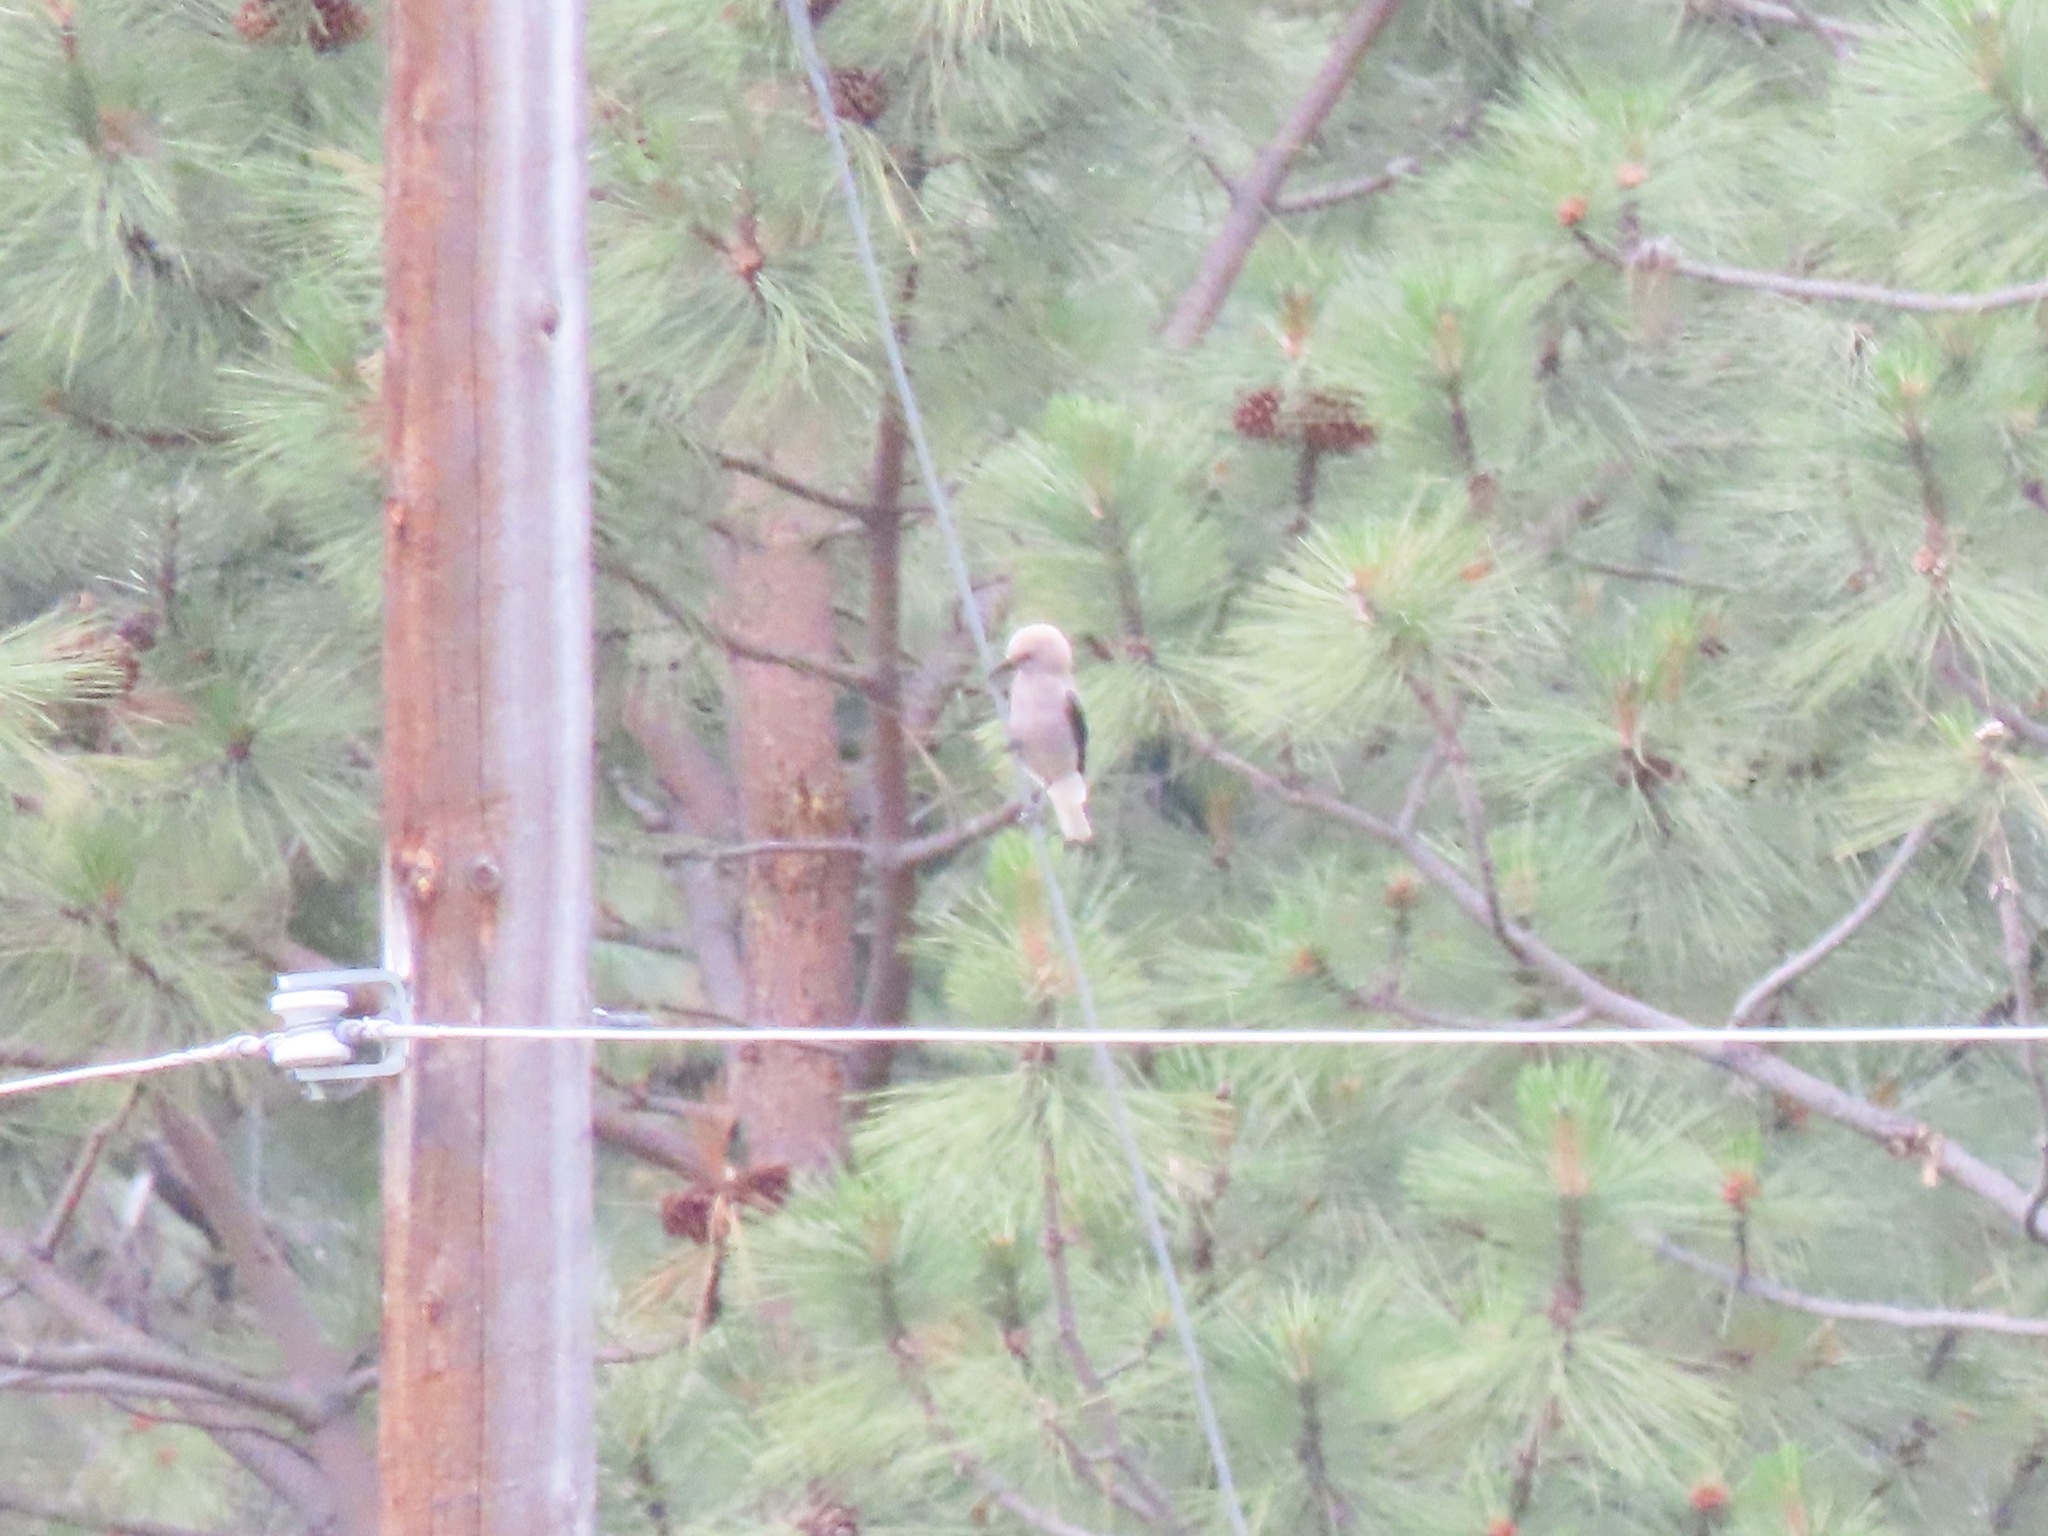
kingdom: Animalia
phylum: Chordata
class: Aves
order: Passeriformes
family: Corvidae
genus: Nucifraga
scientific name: Nucifraga columbiana
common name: Clark's nutcracker
